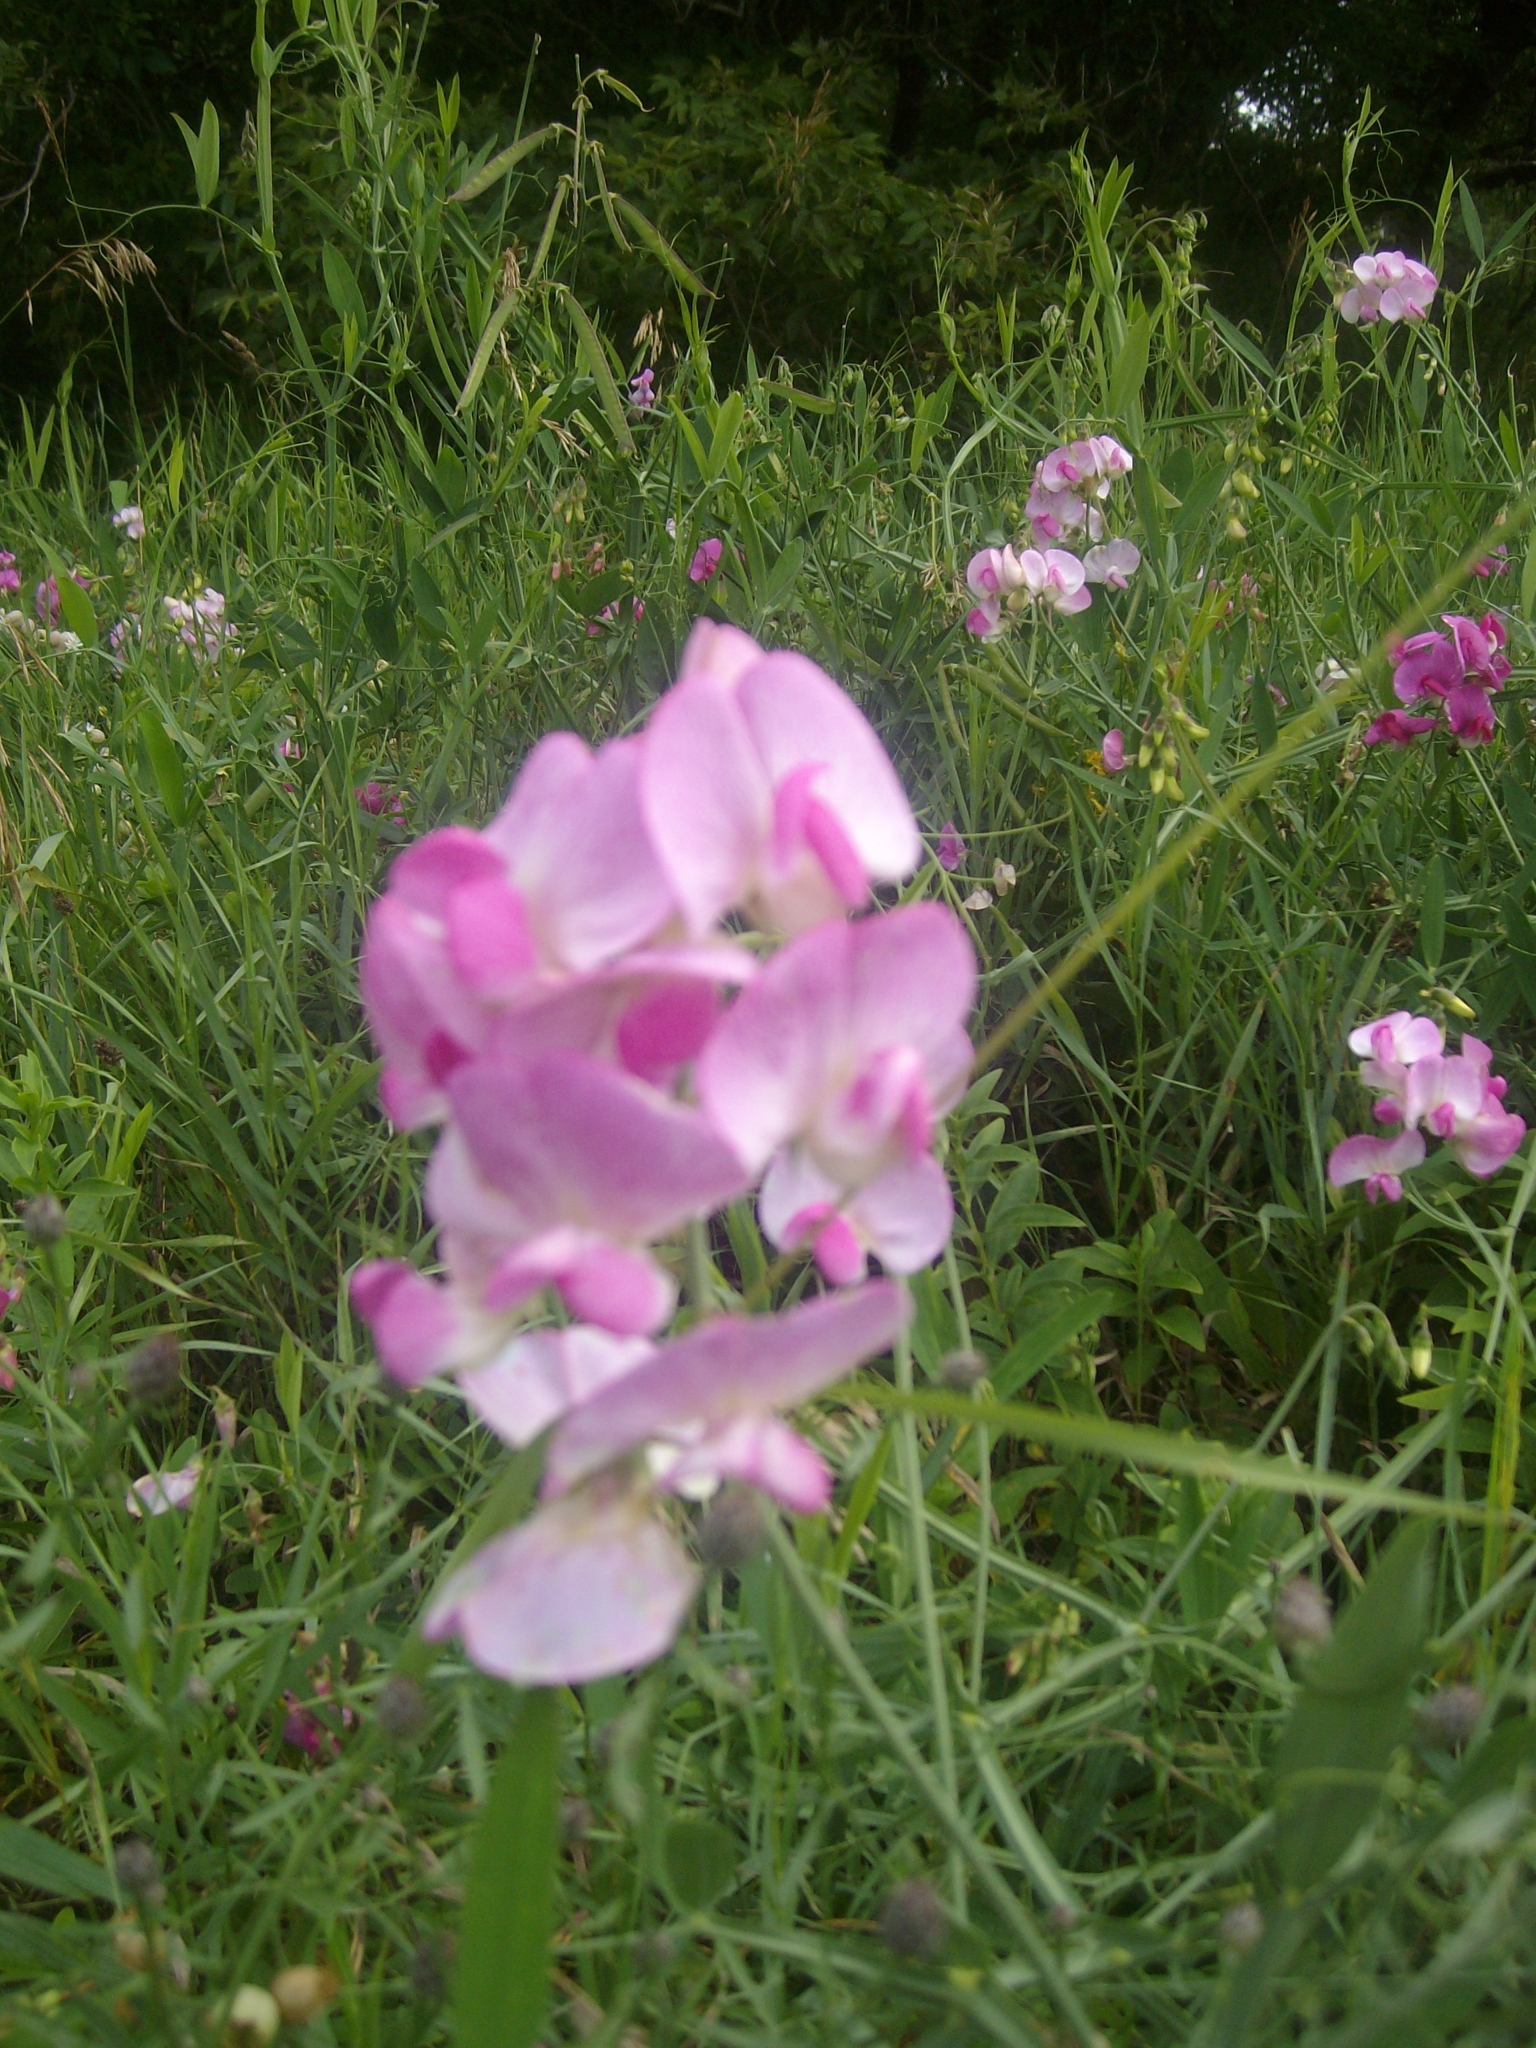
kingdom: Plantae
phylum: Tracheophyta
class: Magnoliopsida
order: Fabales
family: Fabaceae
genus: Lathyrus
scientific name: Lathyrus latifolius
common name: Perennial pea
